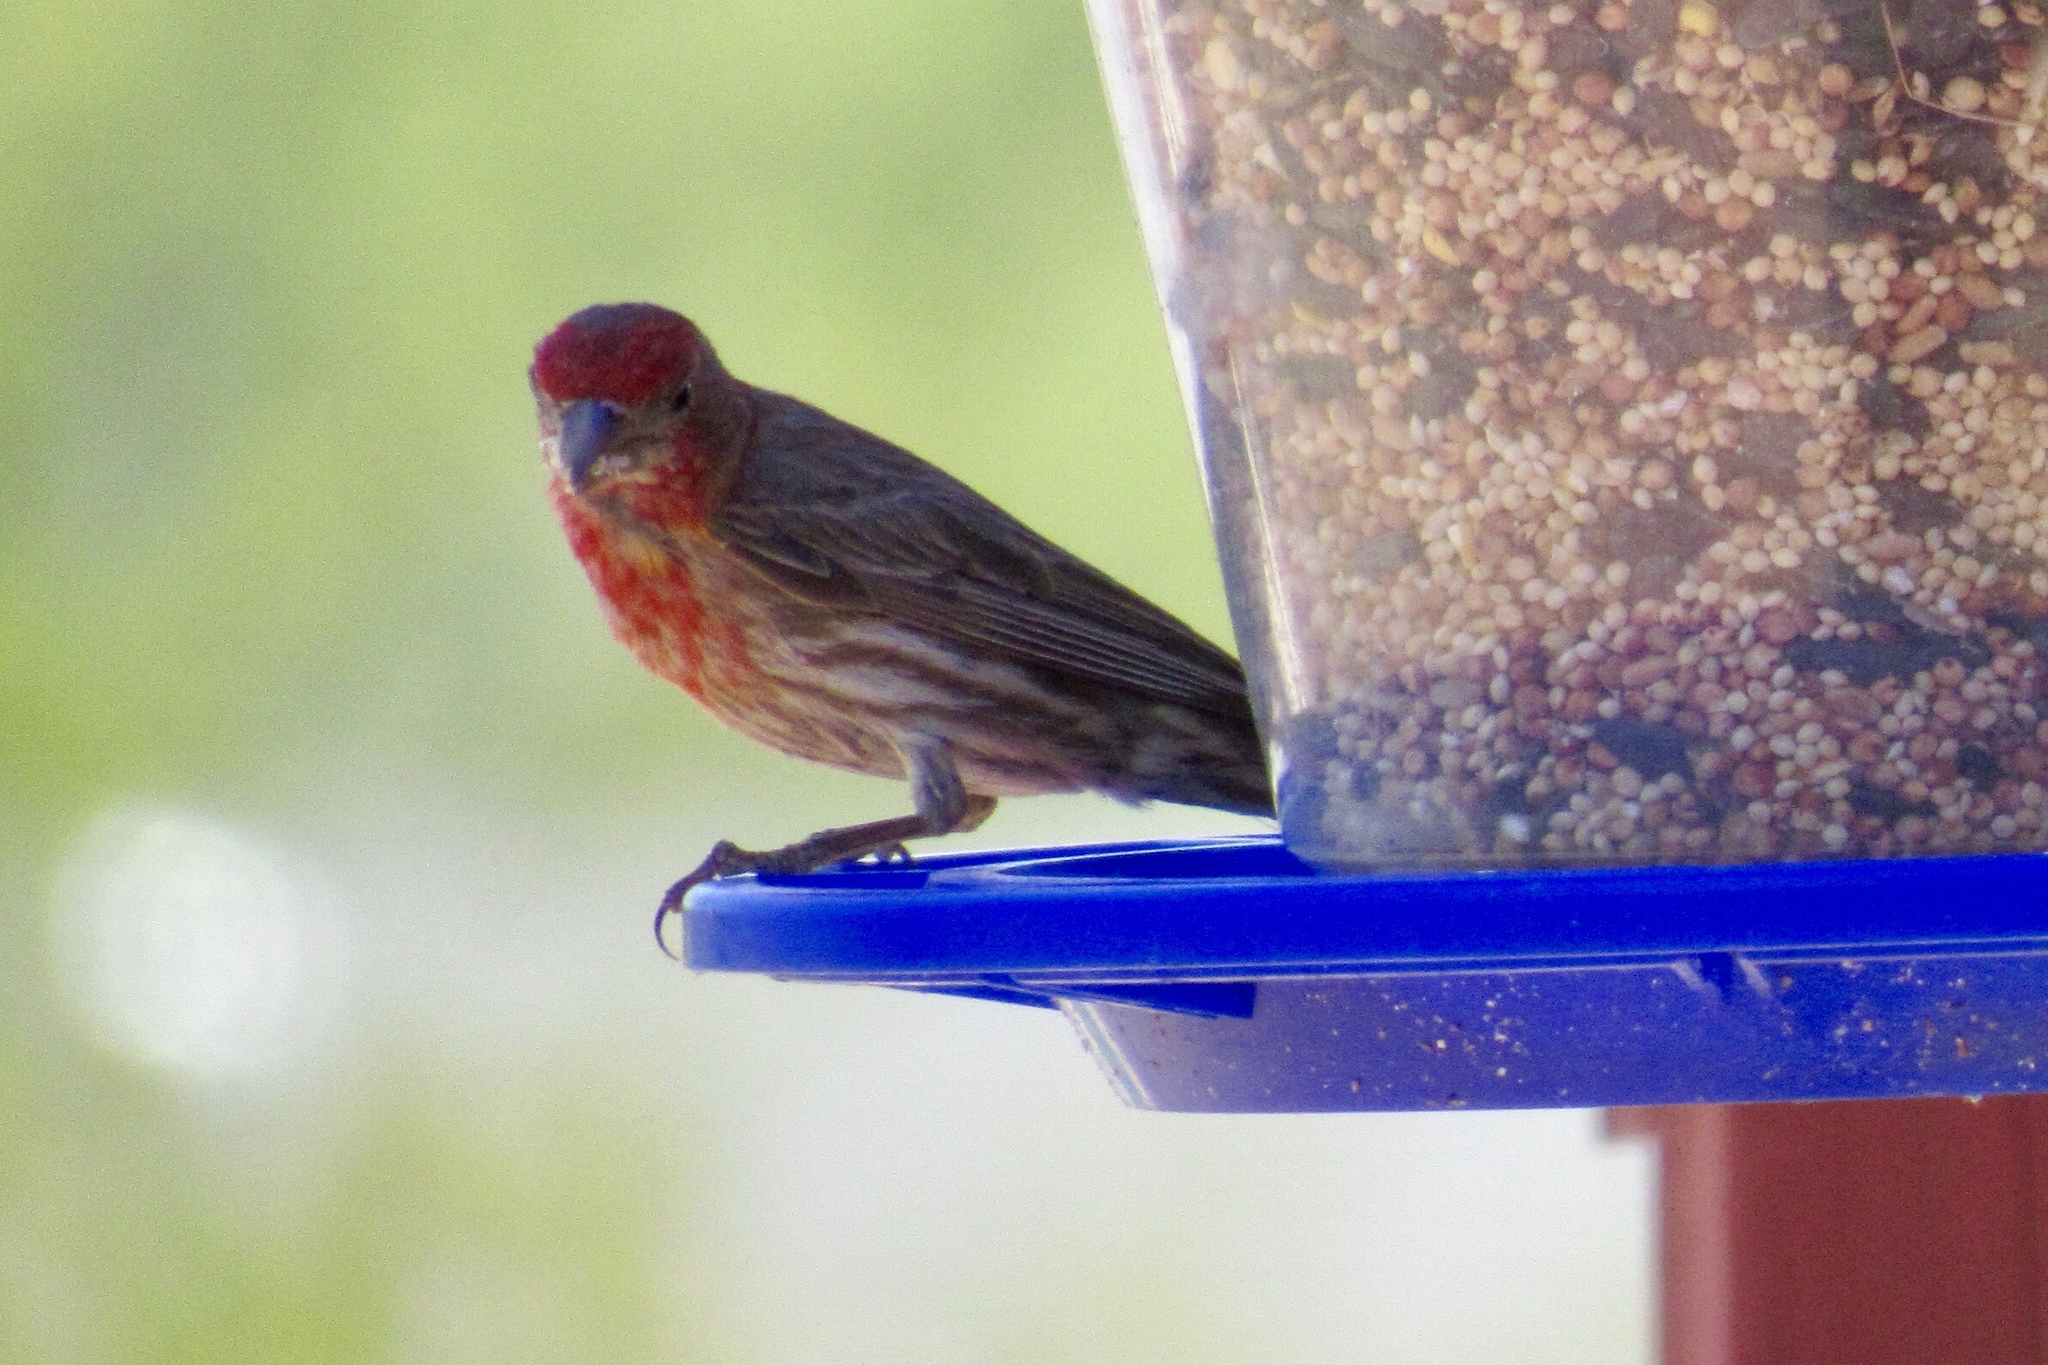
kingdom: Animalia
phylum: Chordata
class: Aves
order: Passeriformes
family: Fringillidae
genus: Haemorhous
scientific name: Haemorhous mexicanus
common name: House finch
